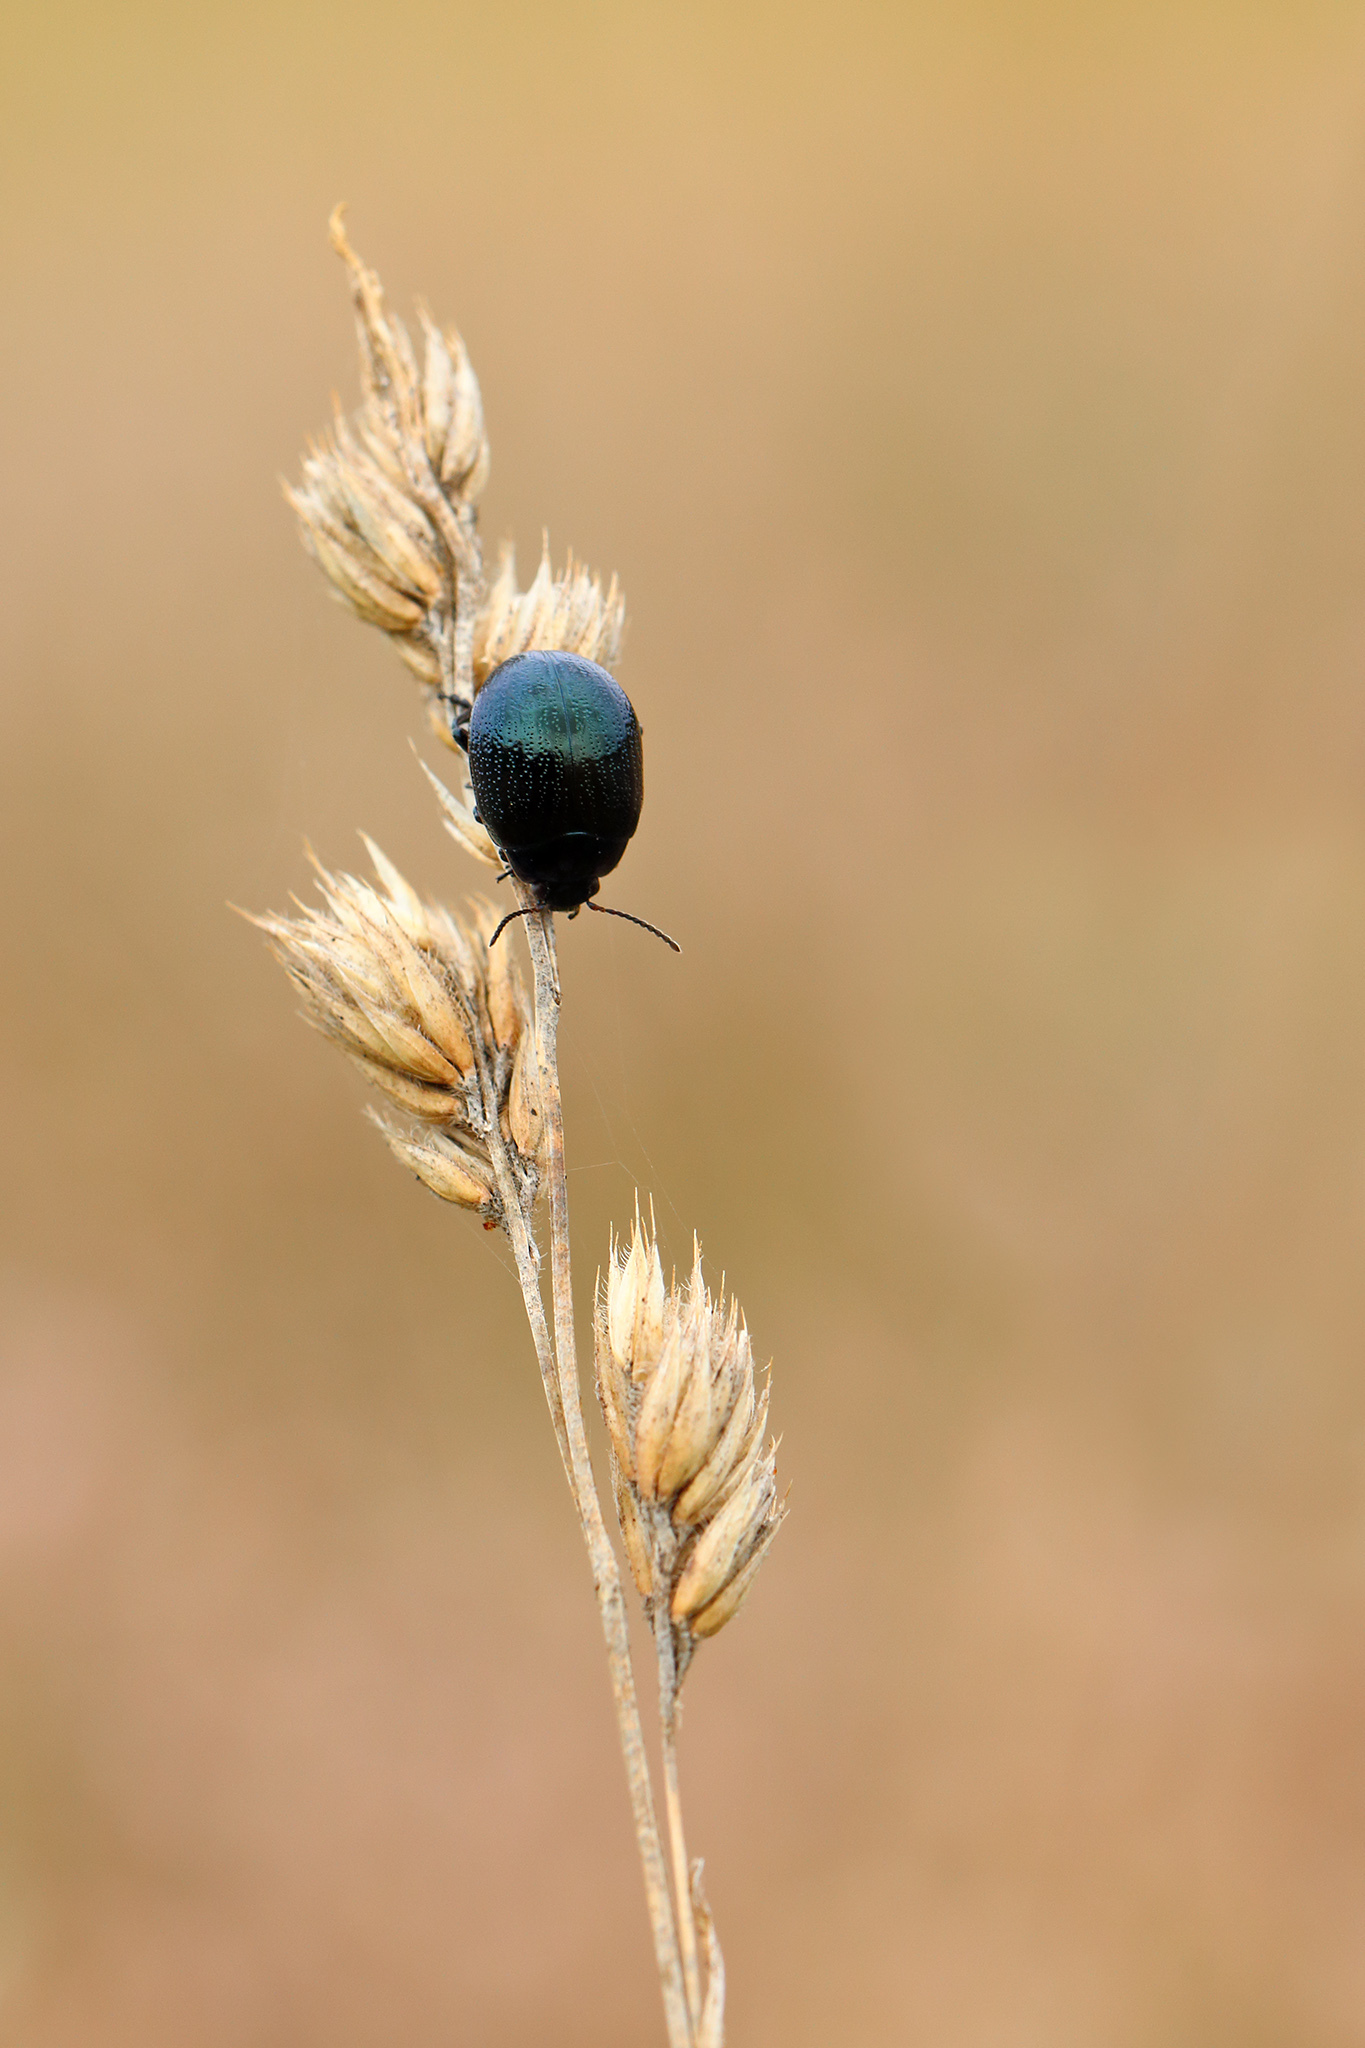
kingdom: Animalia
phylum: Arthropoda
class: Insecta
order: Coleoptera
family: Chrysomelidae
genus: Chrysolina
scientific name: Chrysolina haemoptera
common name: Plantain leaf beetle
